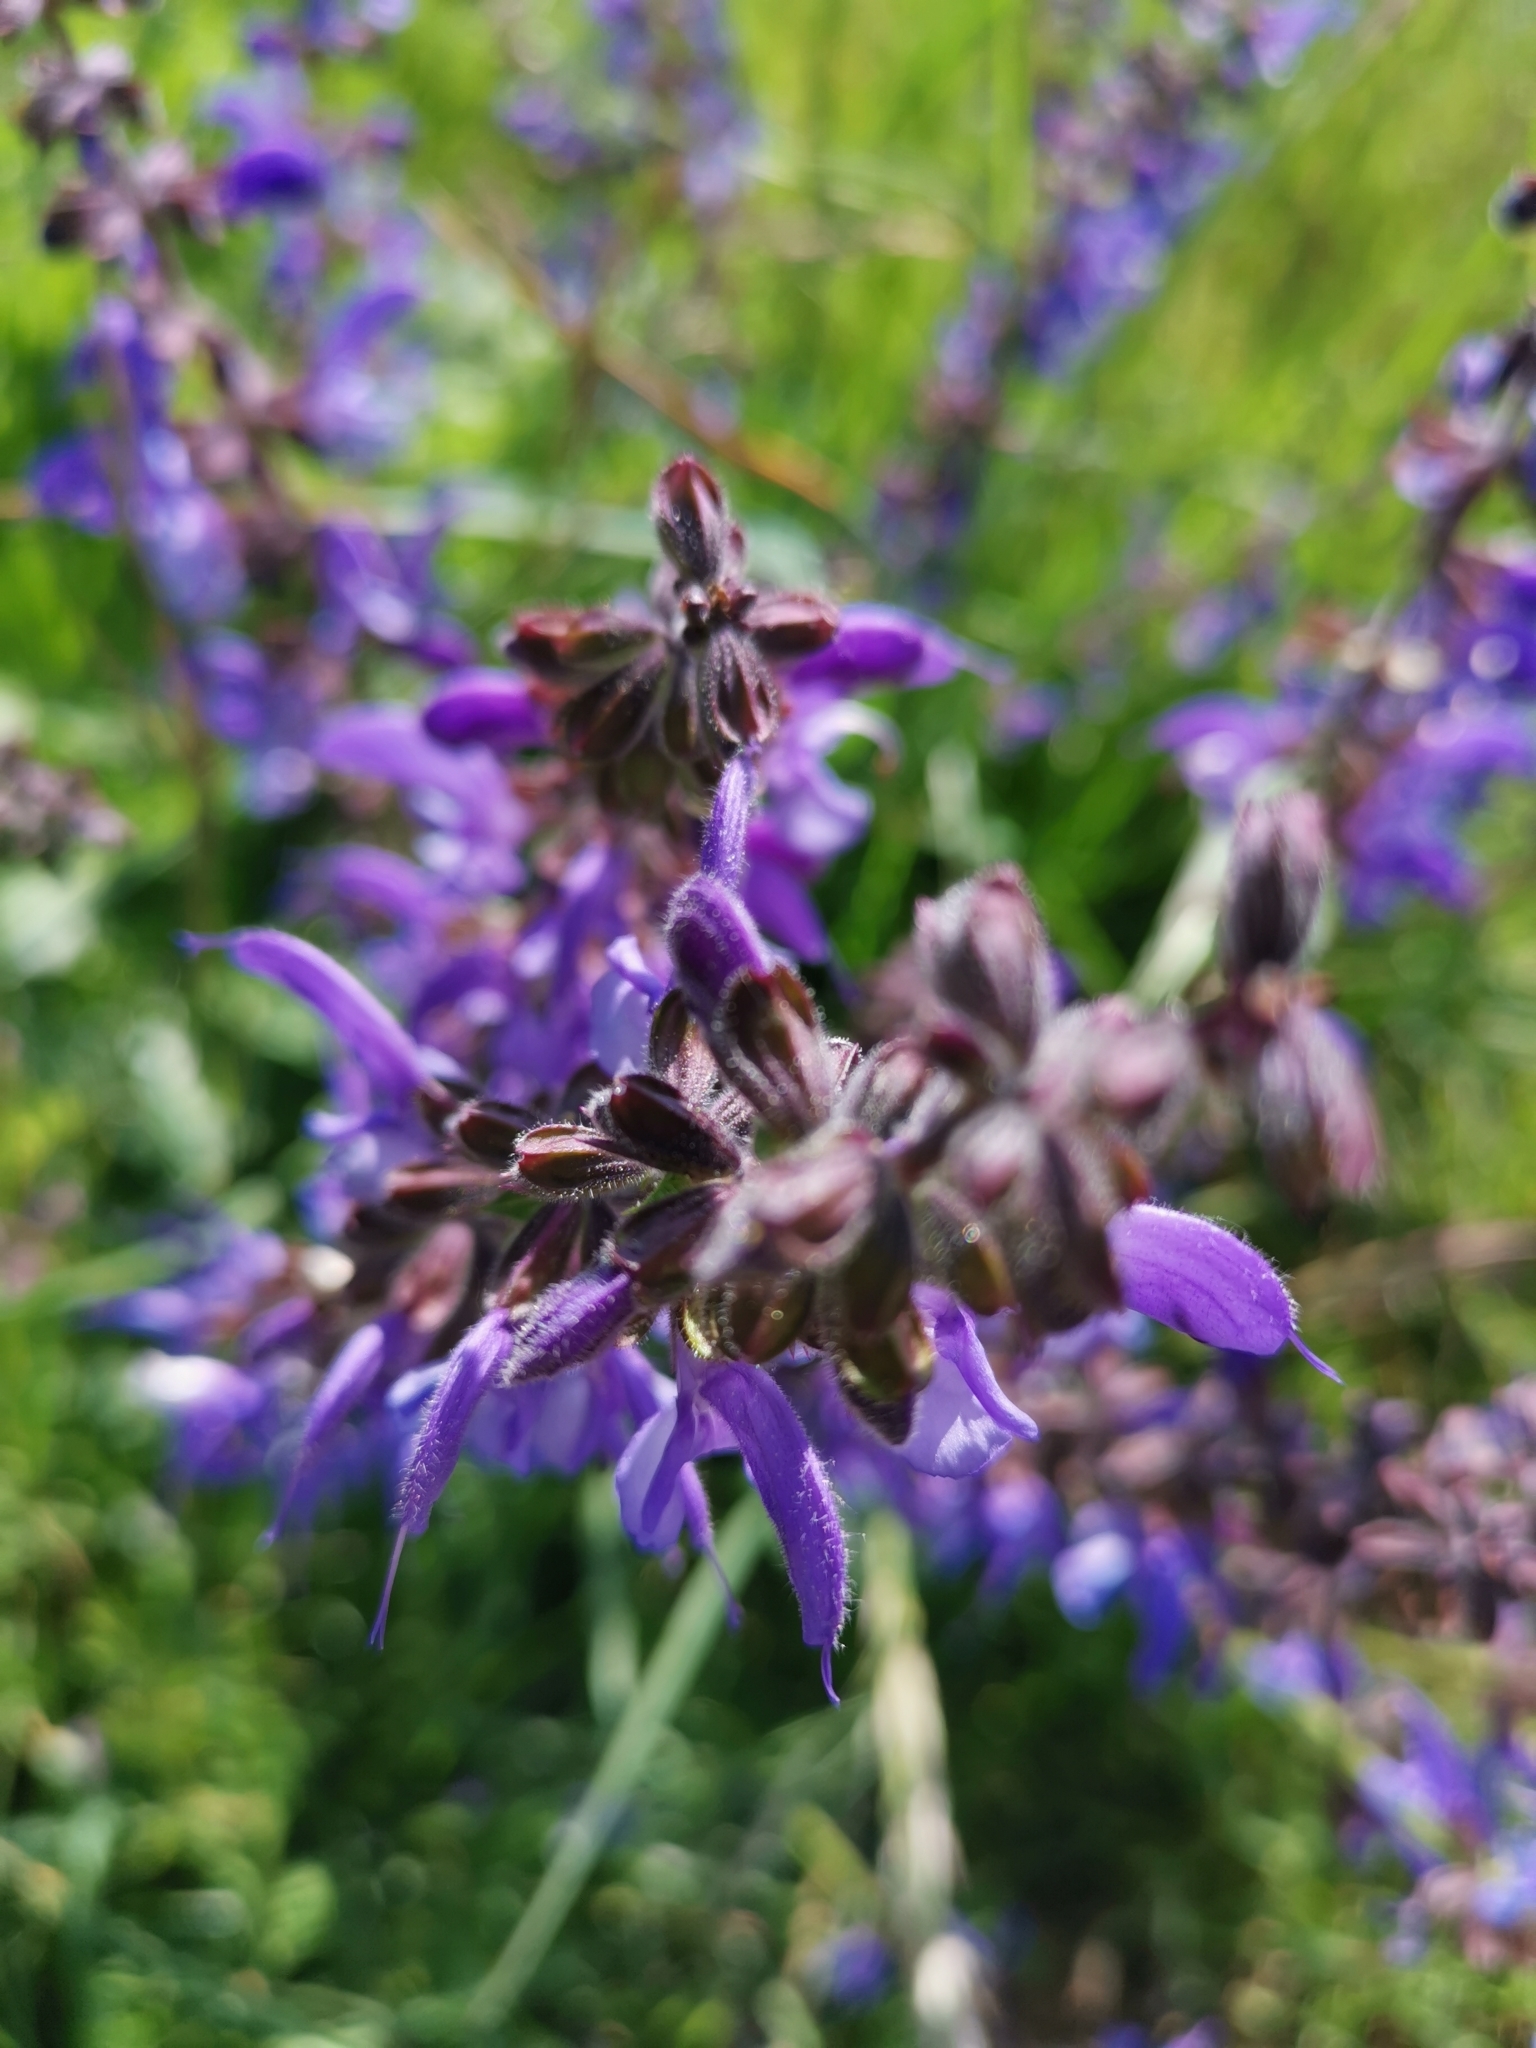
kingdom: Plantae
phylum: Tracheophyta
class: Magnoliopsida
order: Lamiales
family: Lamiaceae
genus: Salvia
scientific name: Salvia pratensis
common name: Meadow sage
